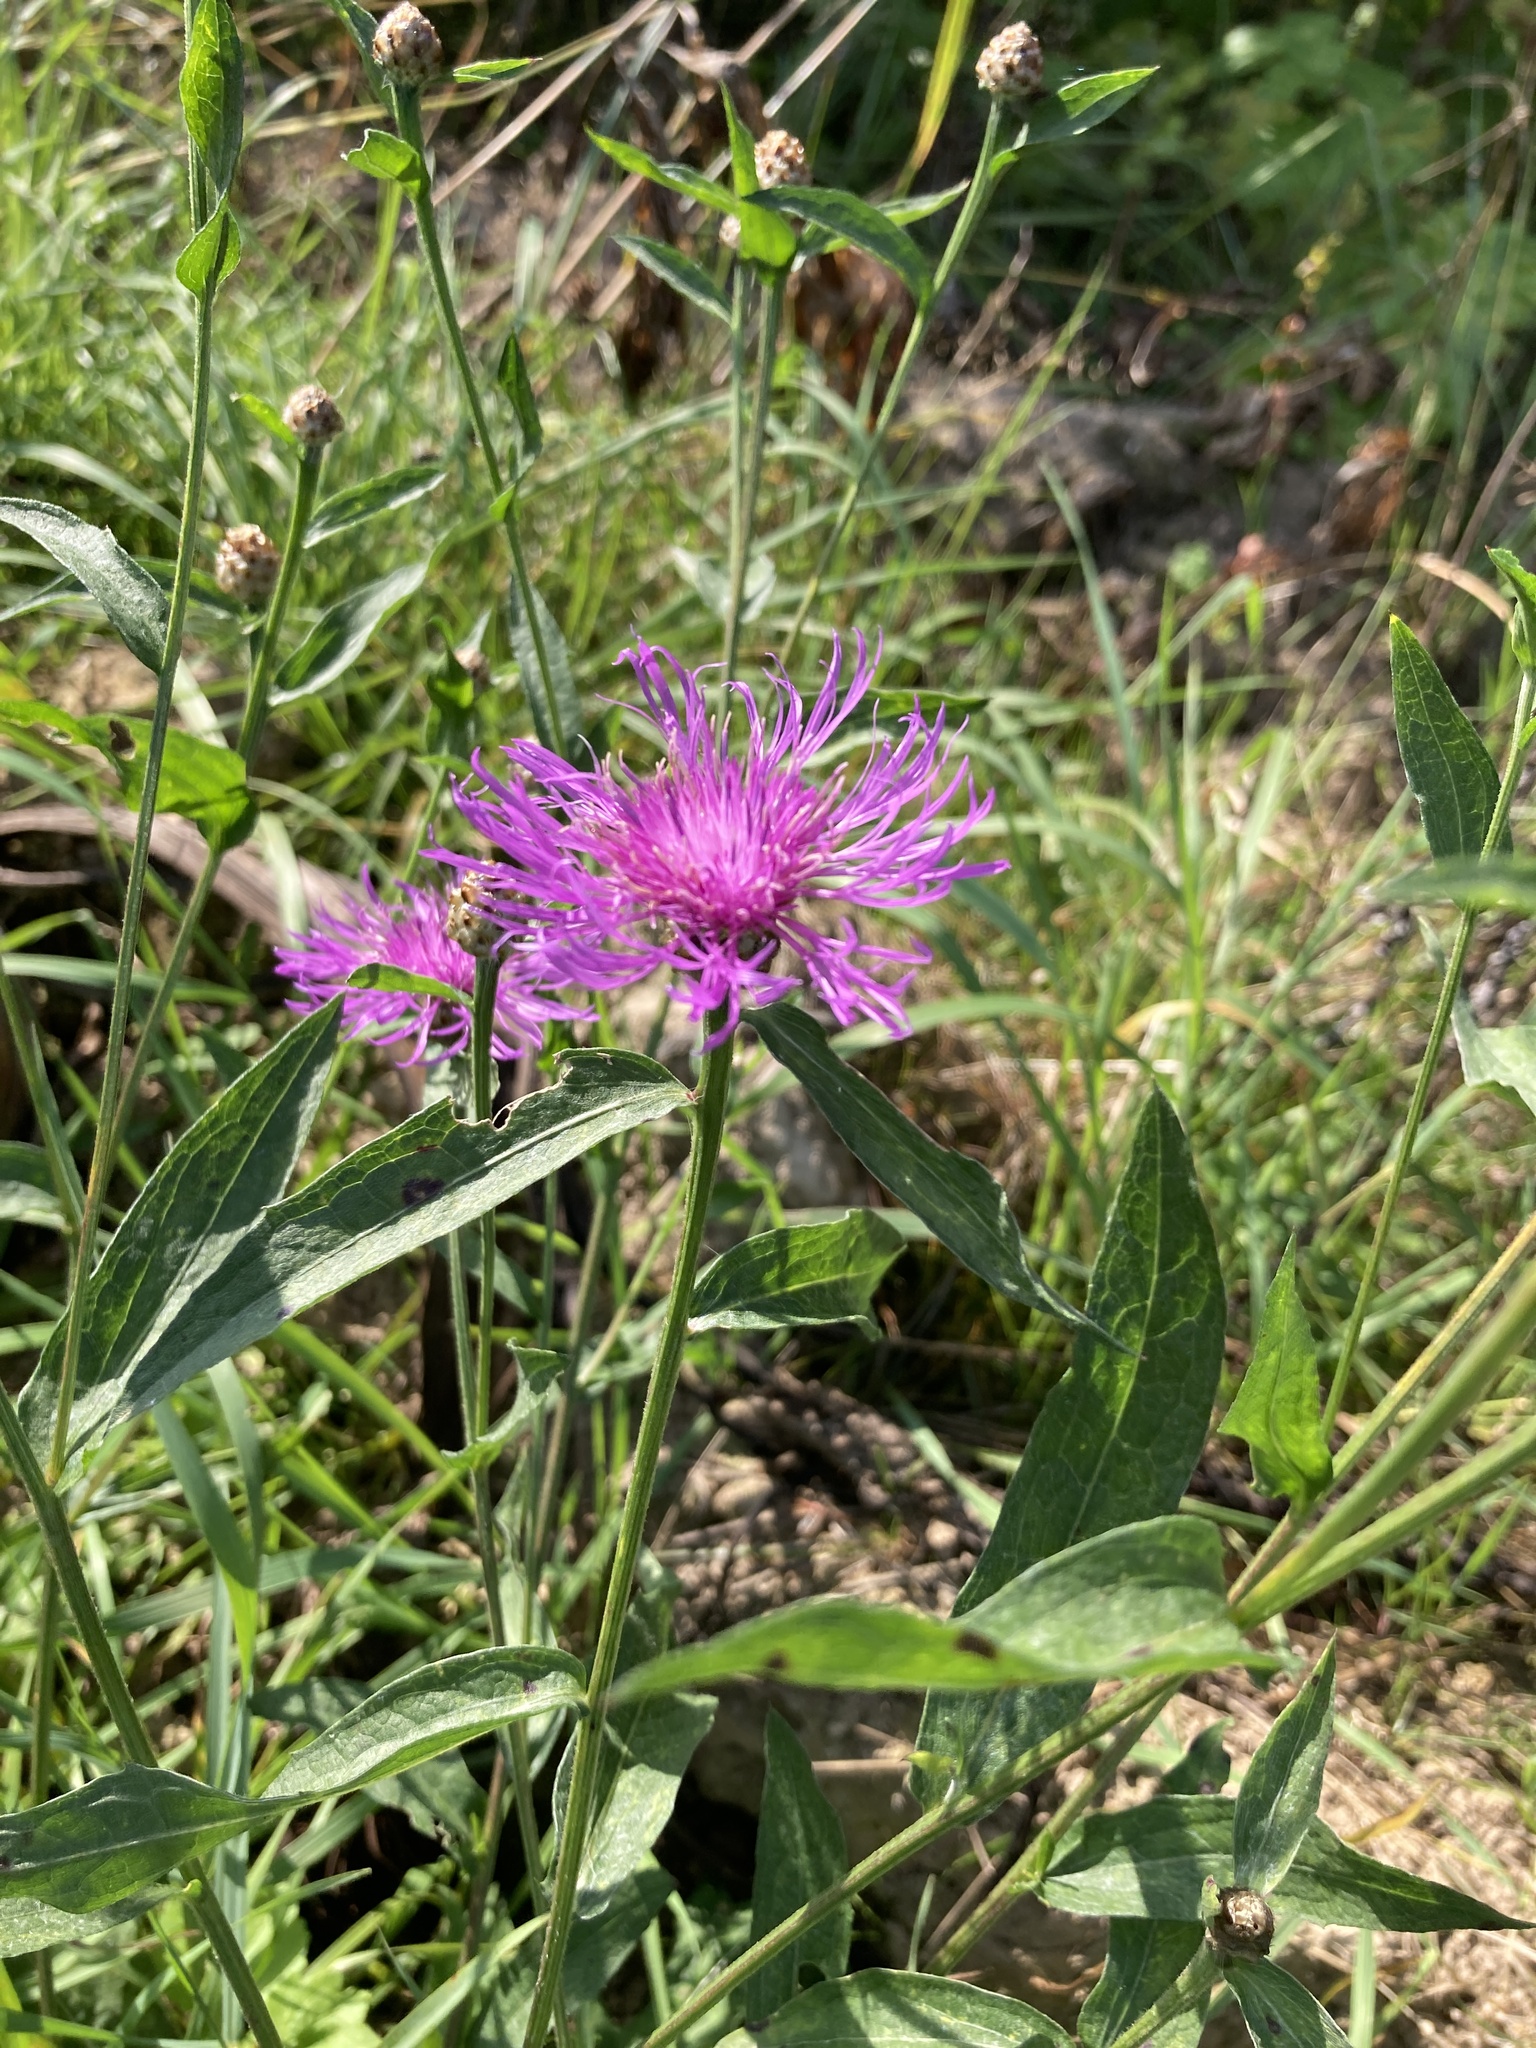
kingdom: Plantae
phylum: Tracheophyta
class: Magnoliopsida
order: Asterales
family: Asteraceae
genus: Centaurea
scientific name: Centaurea jacea
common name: Brown knapweed
